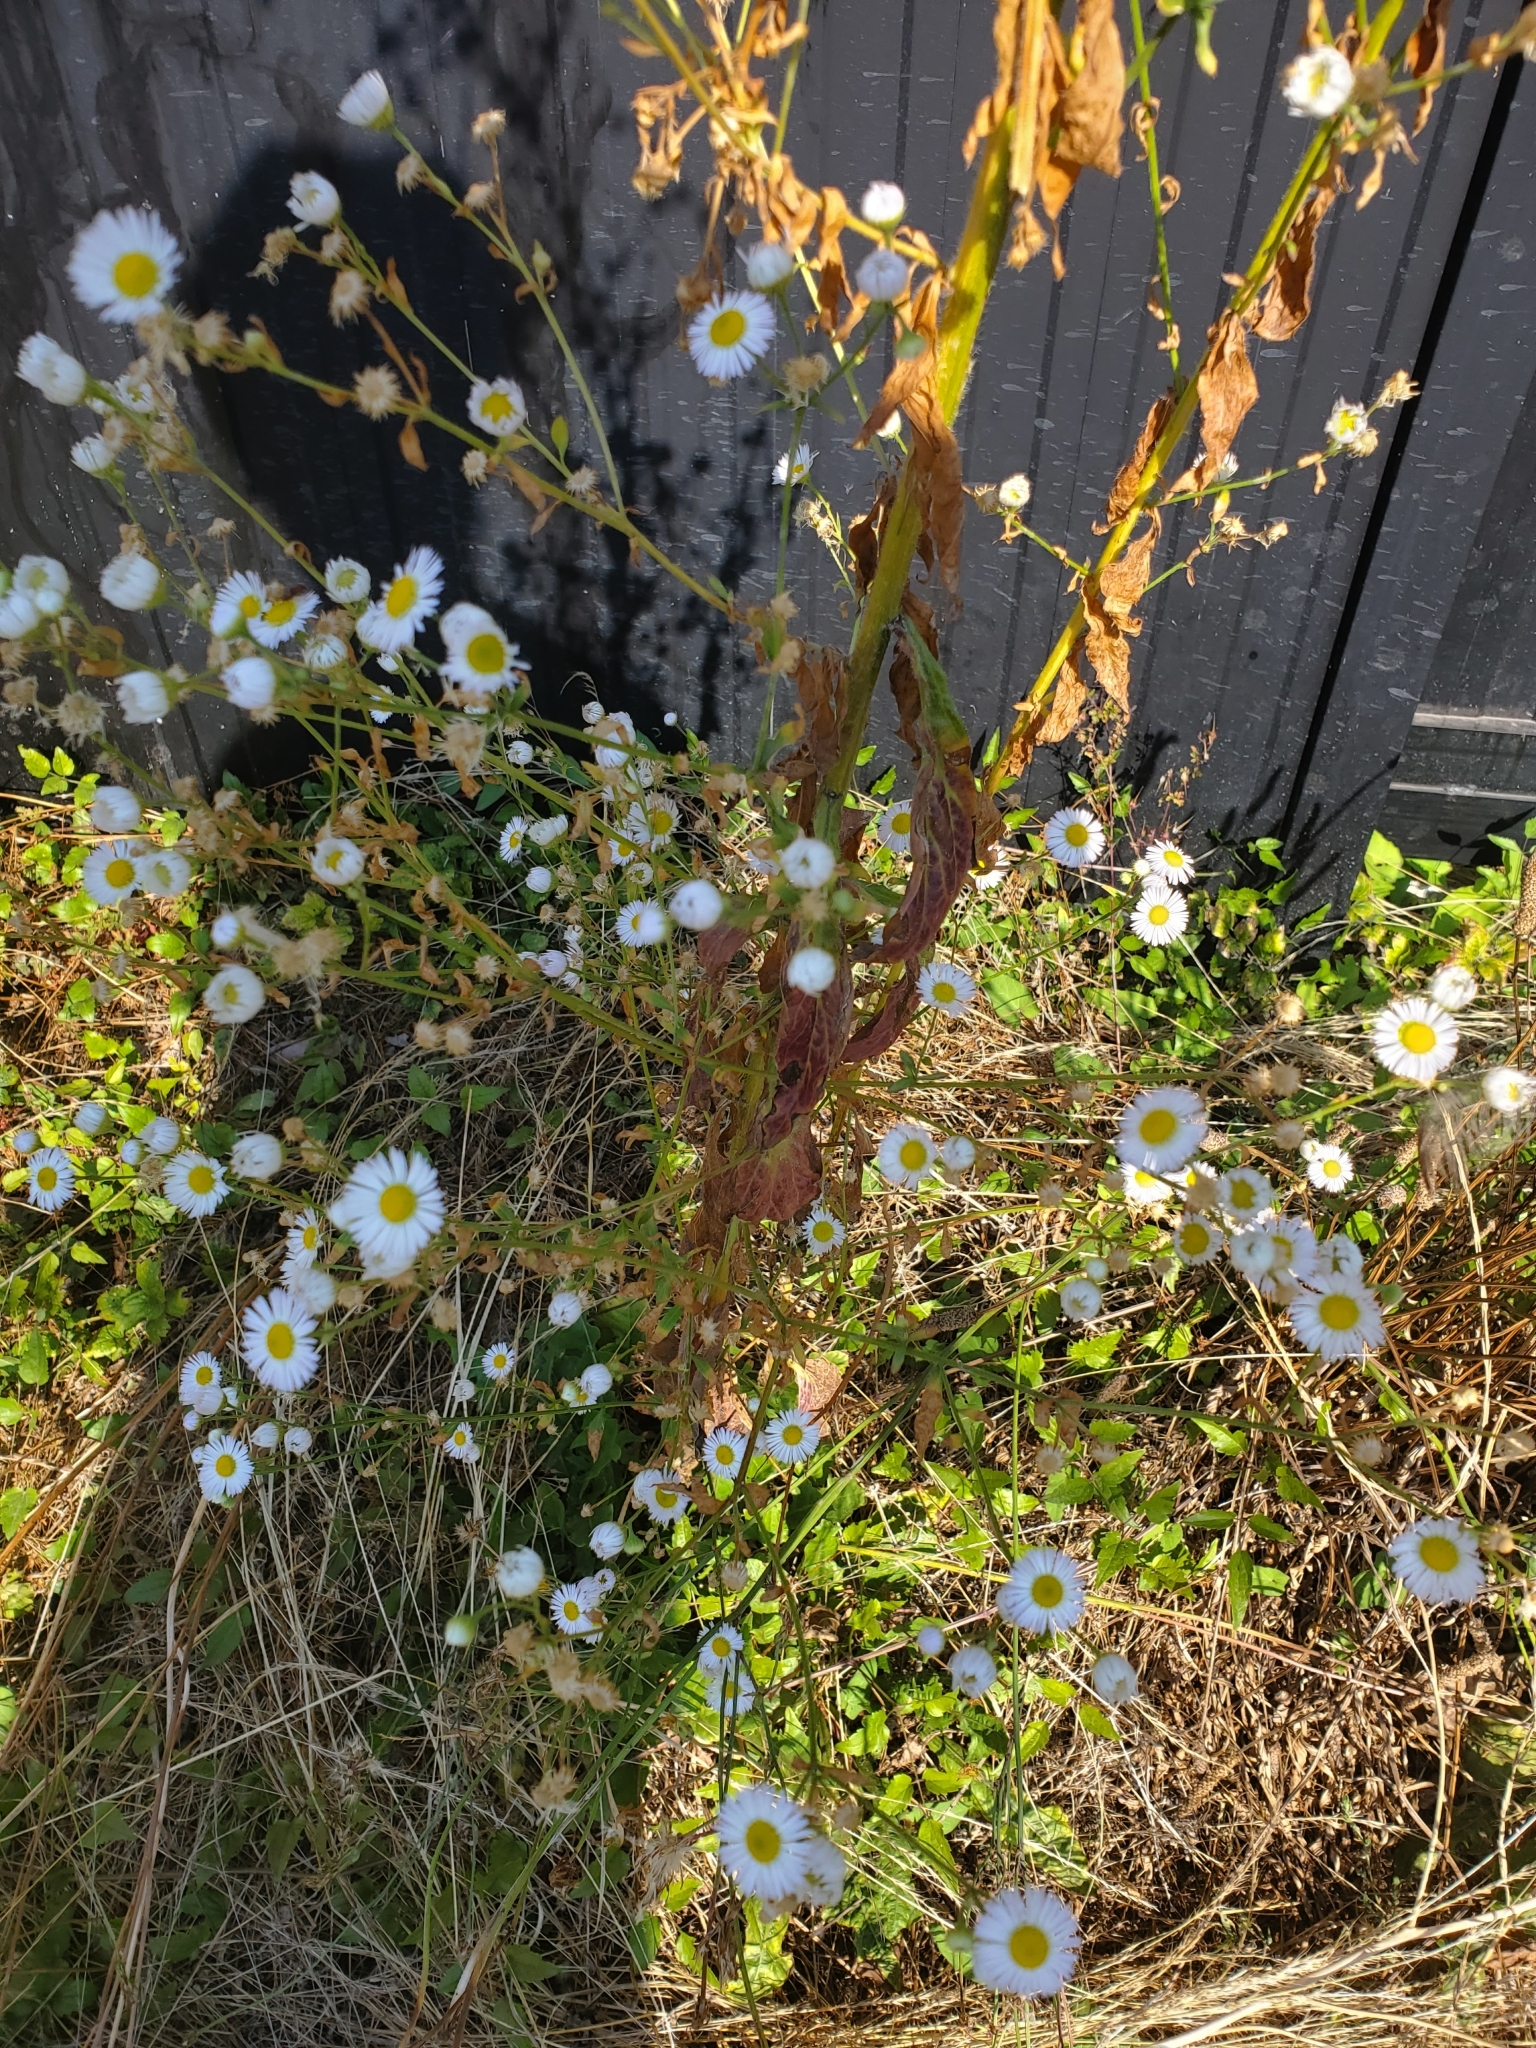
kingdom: Plantae
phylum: Tracheophyta
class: Magnoliopsida
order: Asterales
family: Asteraceae
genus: Erigeron
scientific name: Erigeron annuus
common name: Tall fleabane
